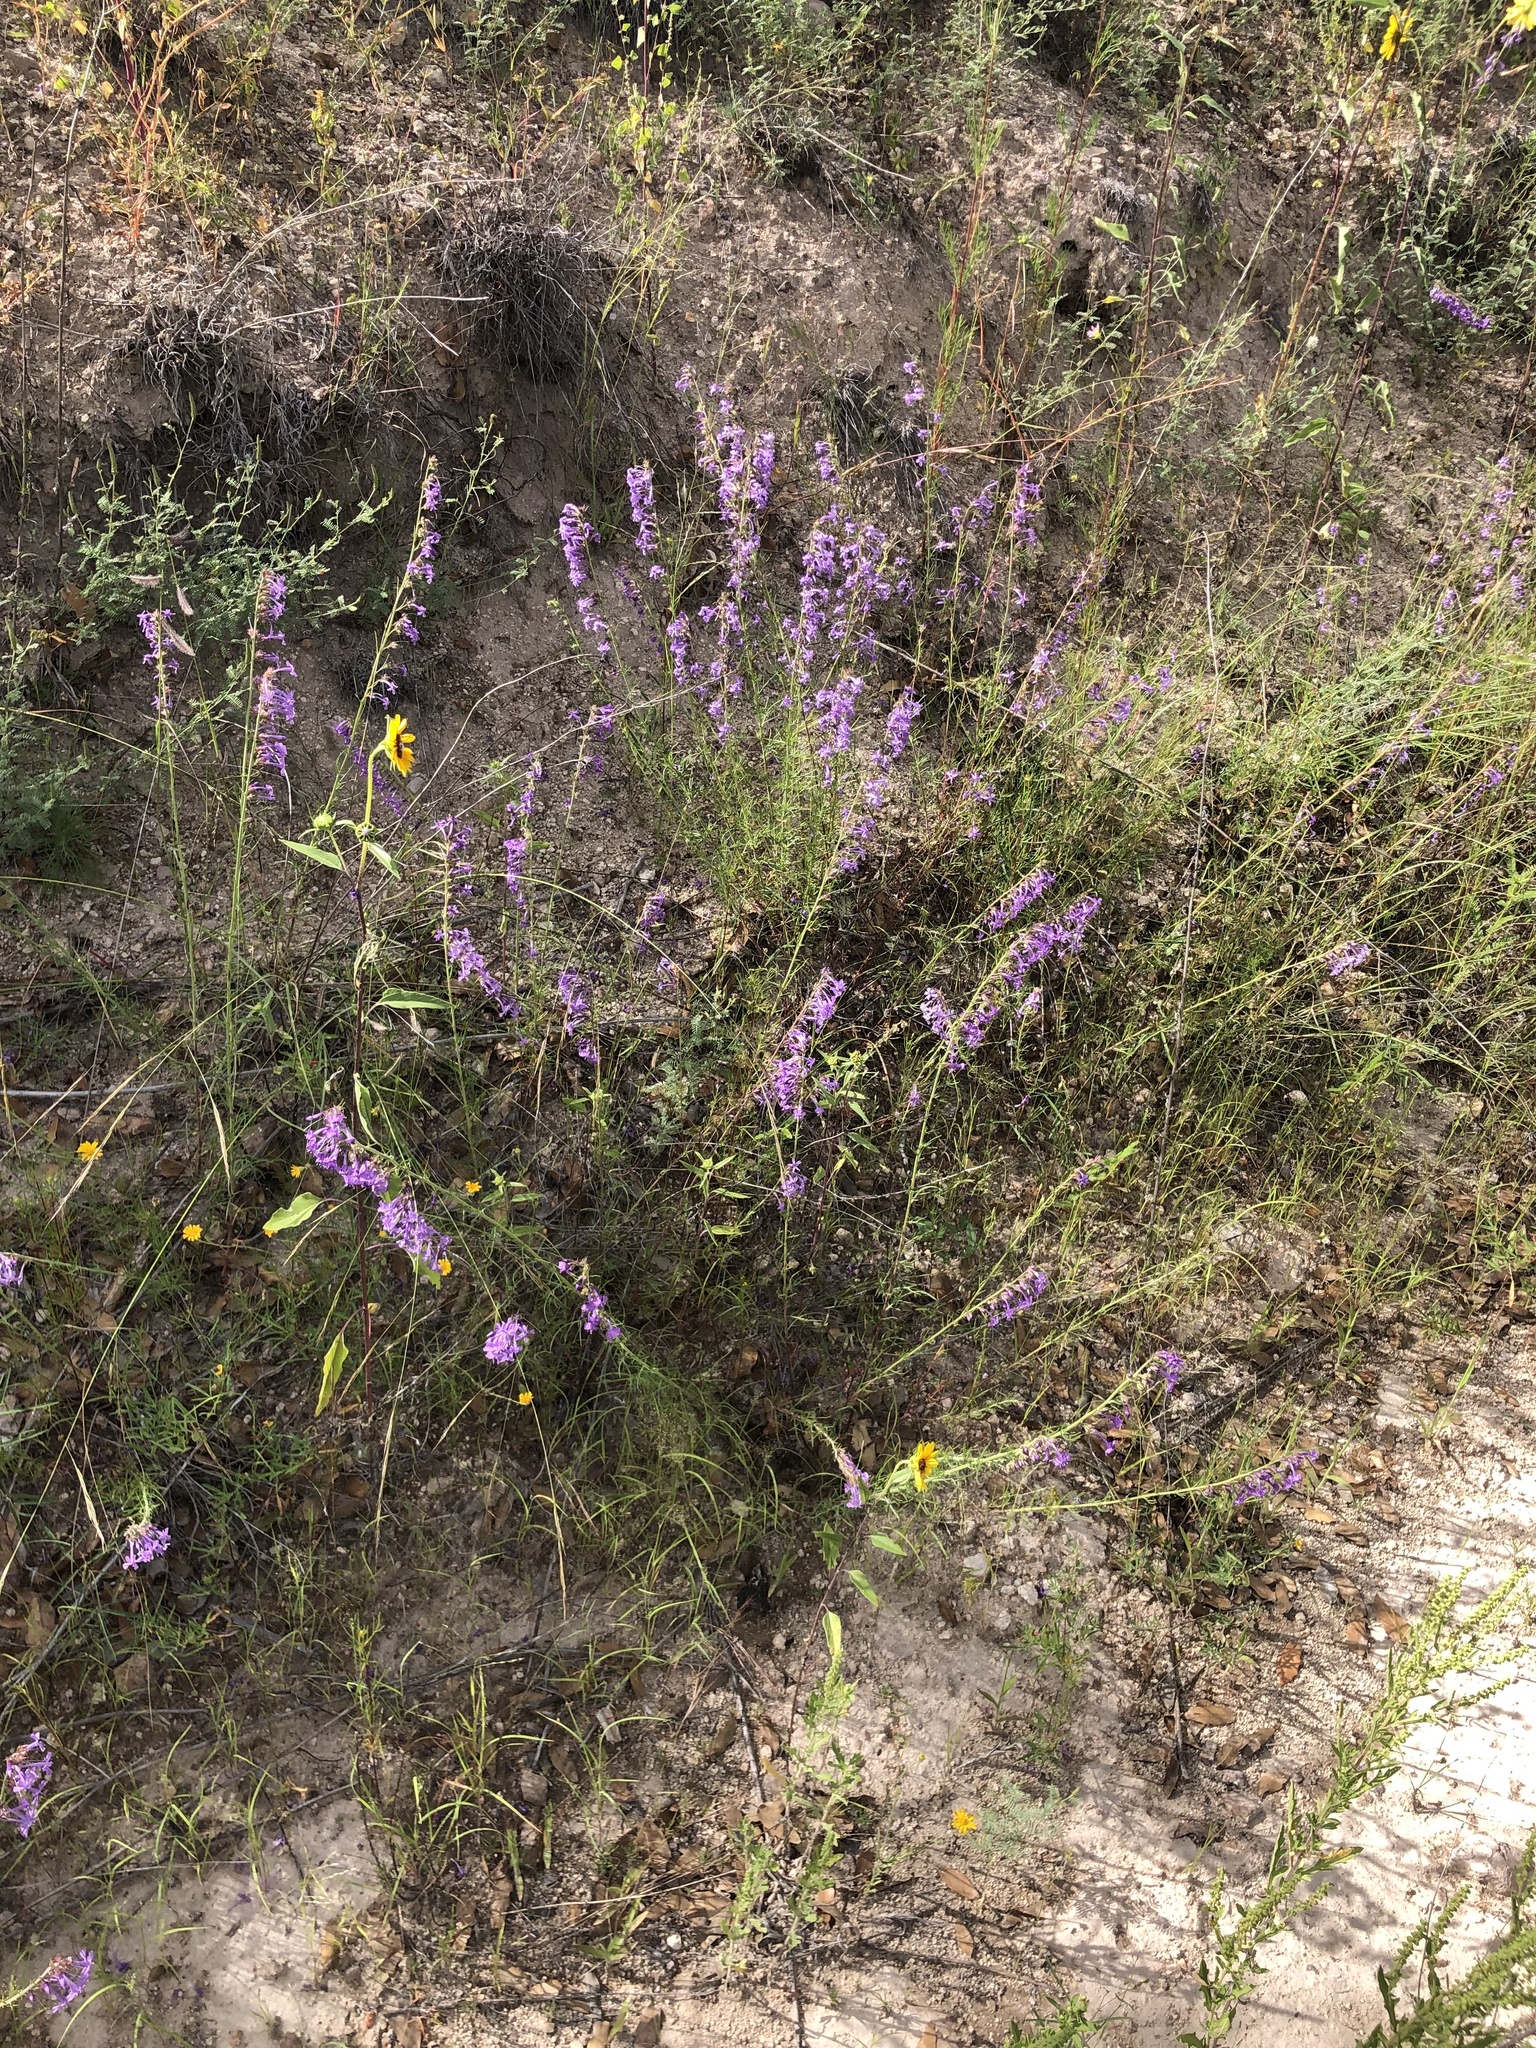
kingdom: Plantae
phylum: Tracheophyta
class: Magnoliopsida
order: Ericales
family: Polemoniaceae
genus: Ipomopsis
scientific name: Ipomopsis macombii
